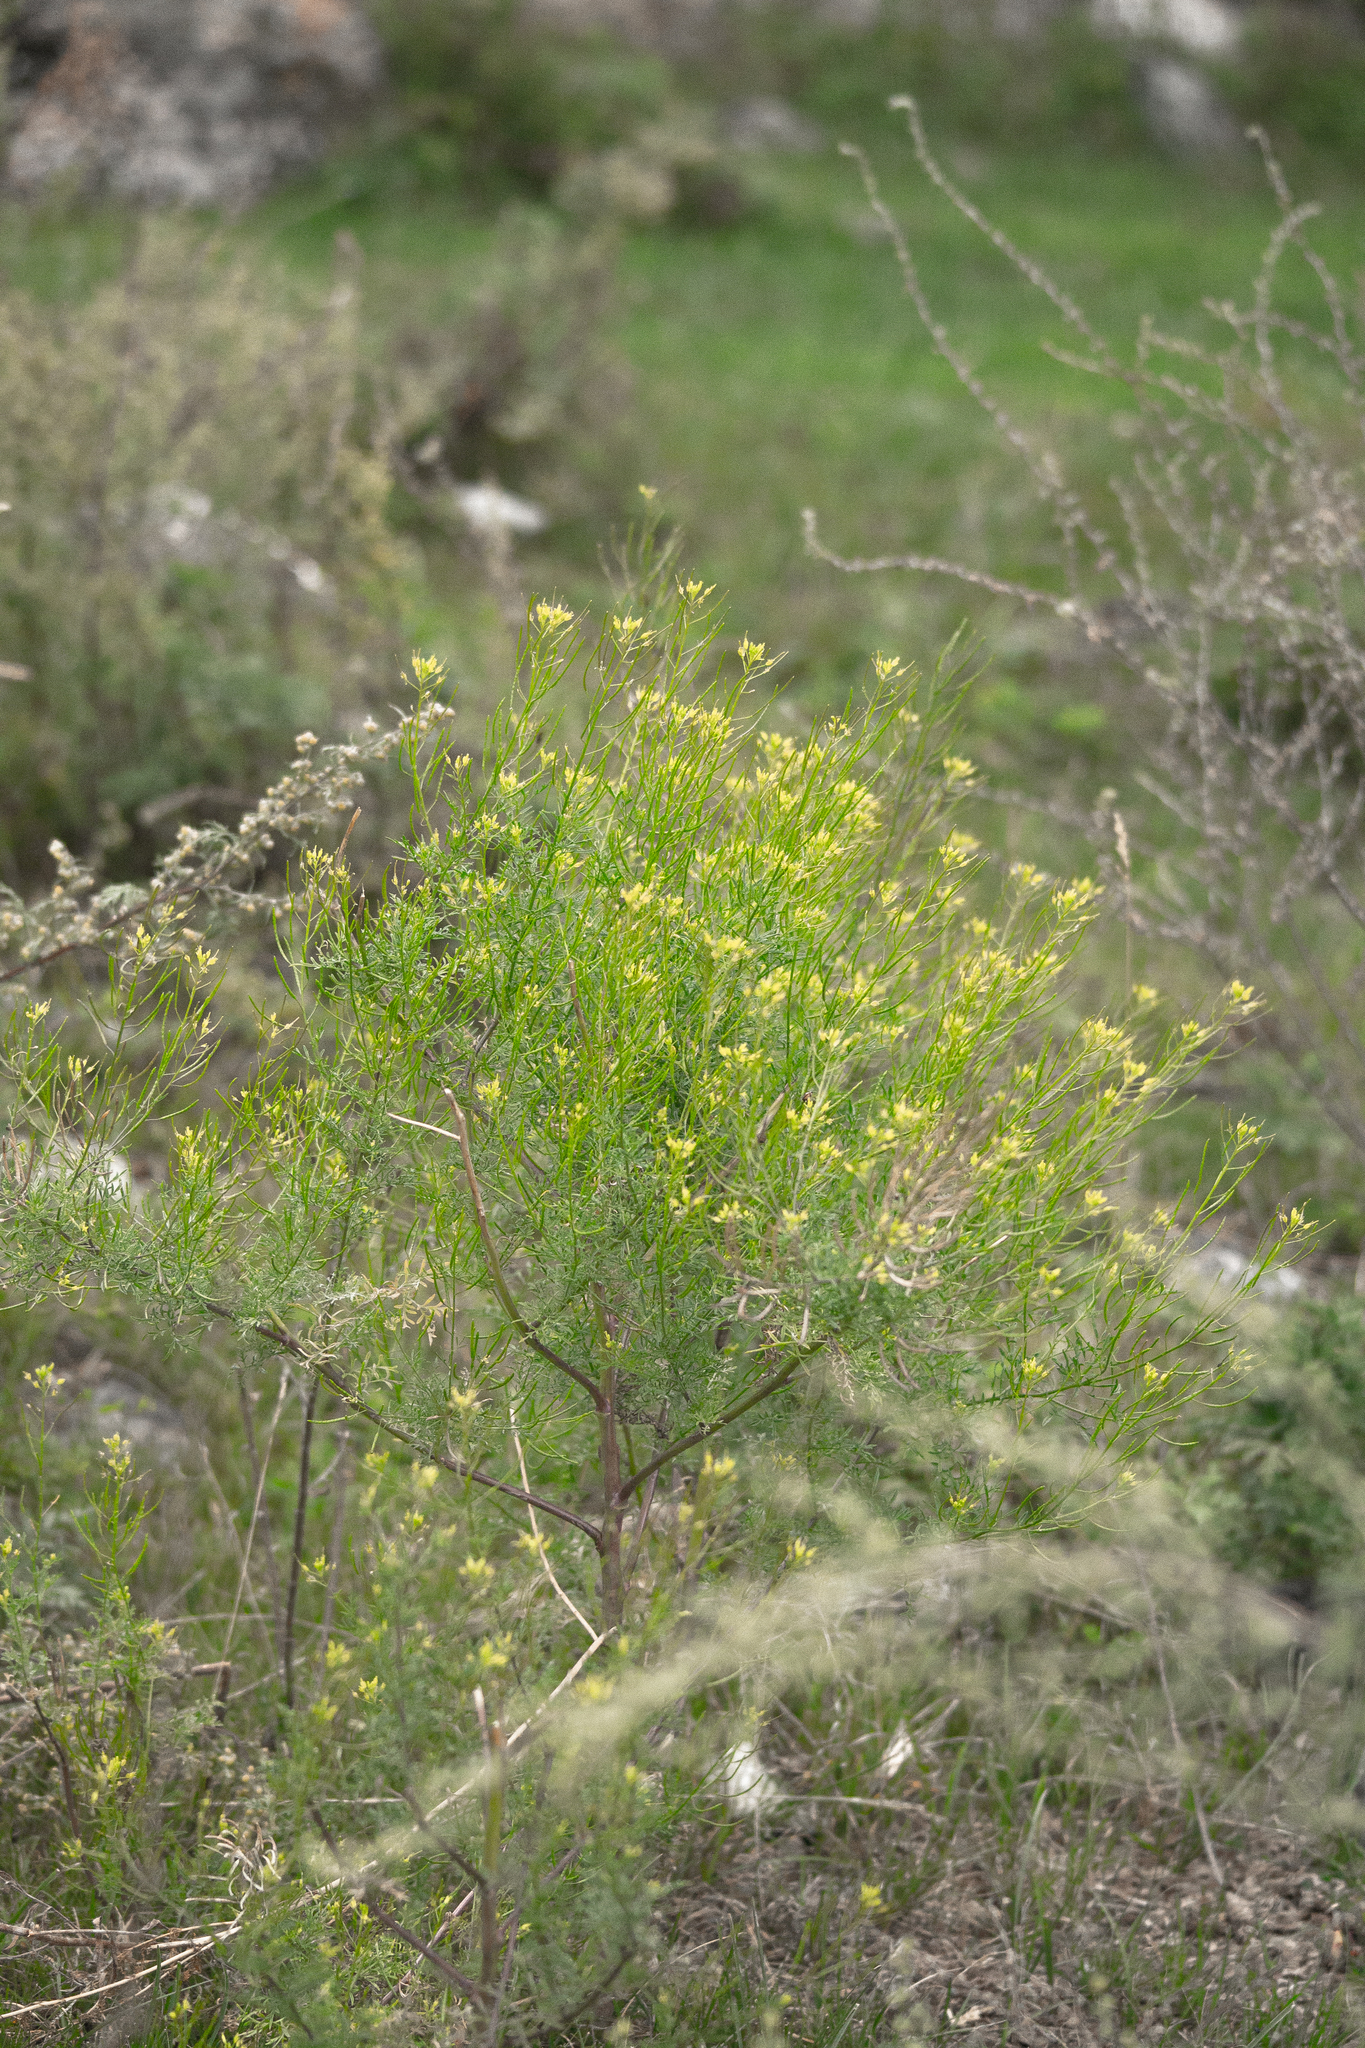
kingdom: Plantae
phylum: Tracheophyta
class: Magnoliopsida
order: Brassicales
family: Brassicaceae
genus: Descurainia
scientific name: Descurainia sophia
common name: Flixweed
